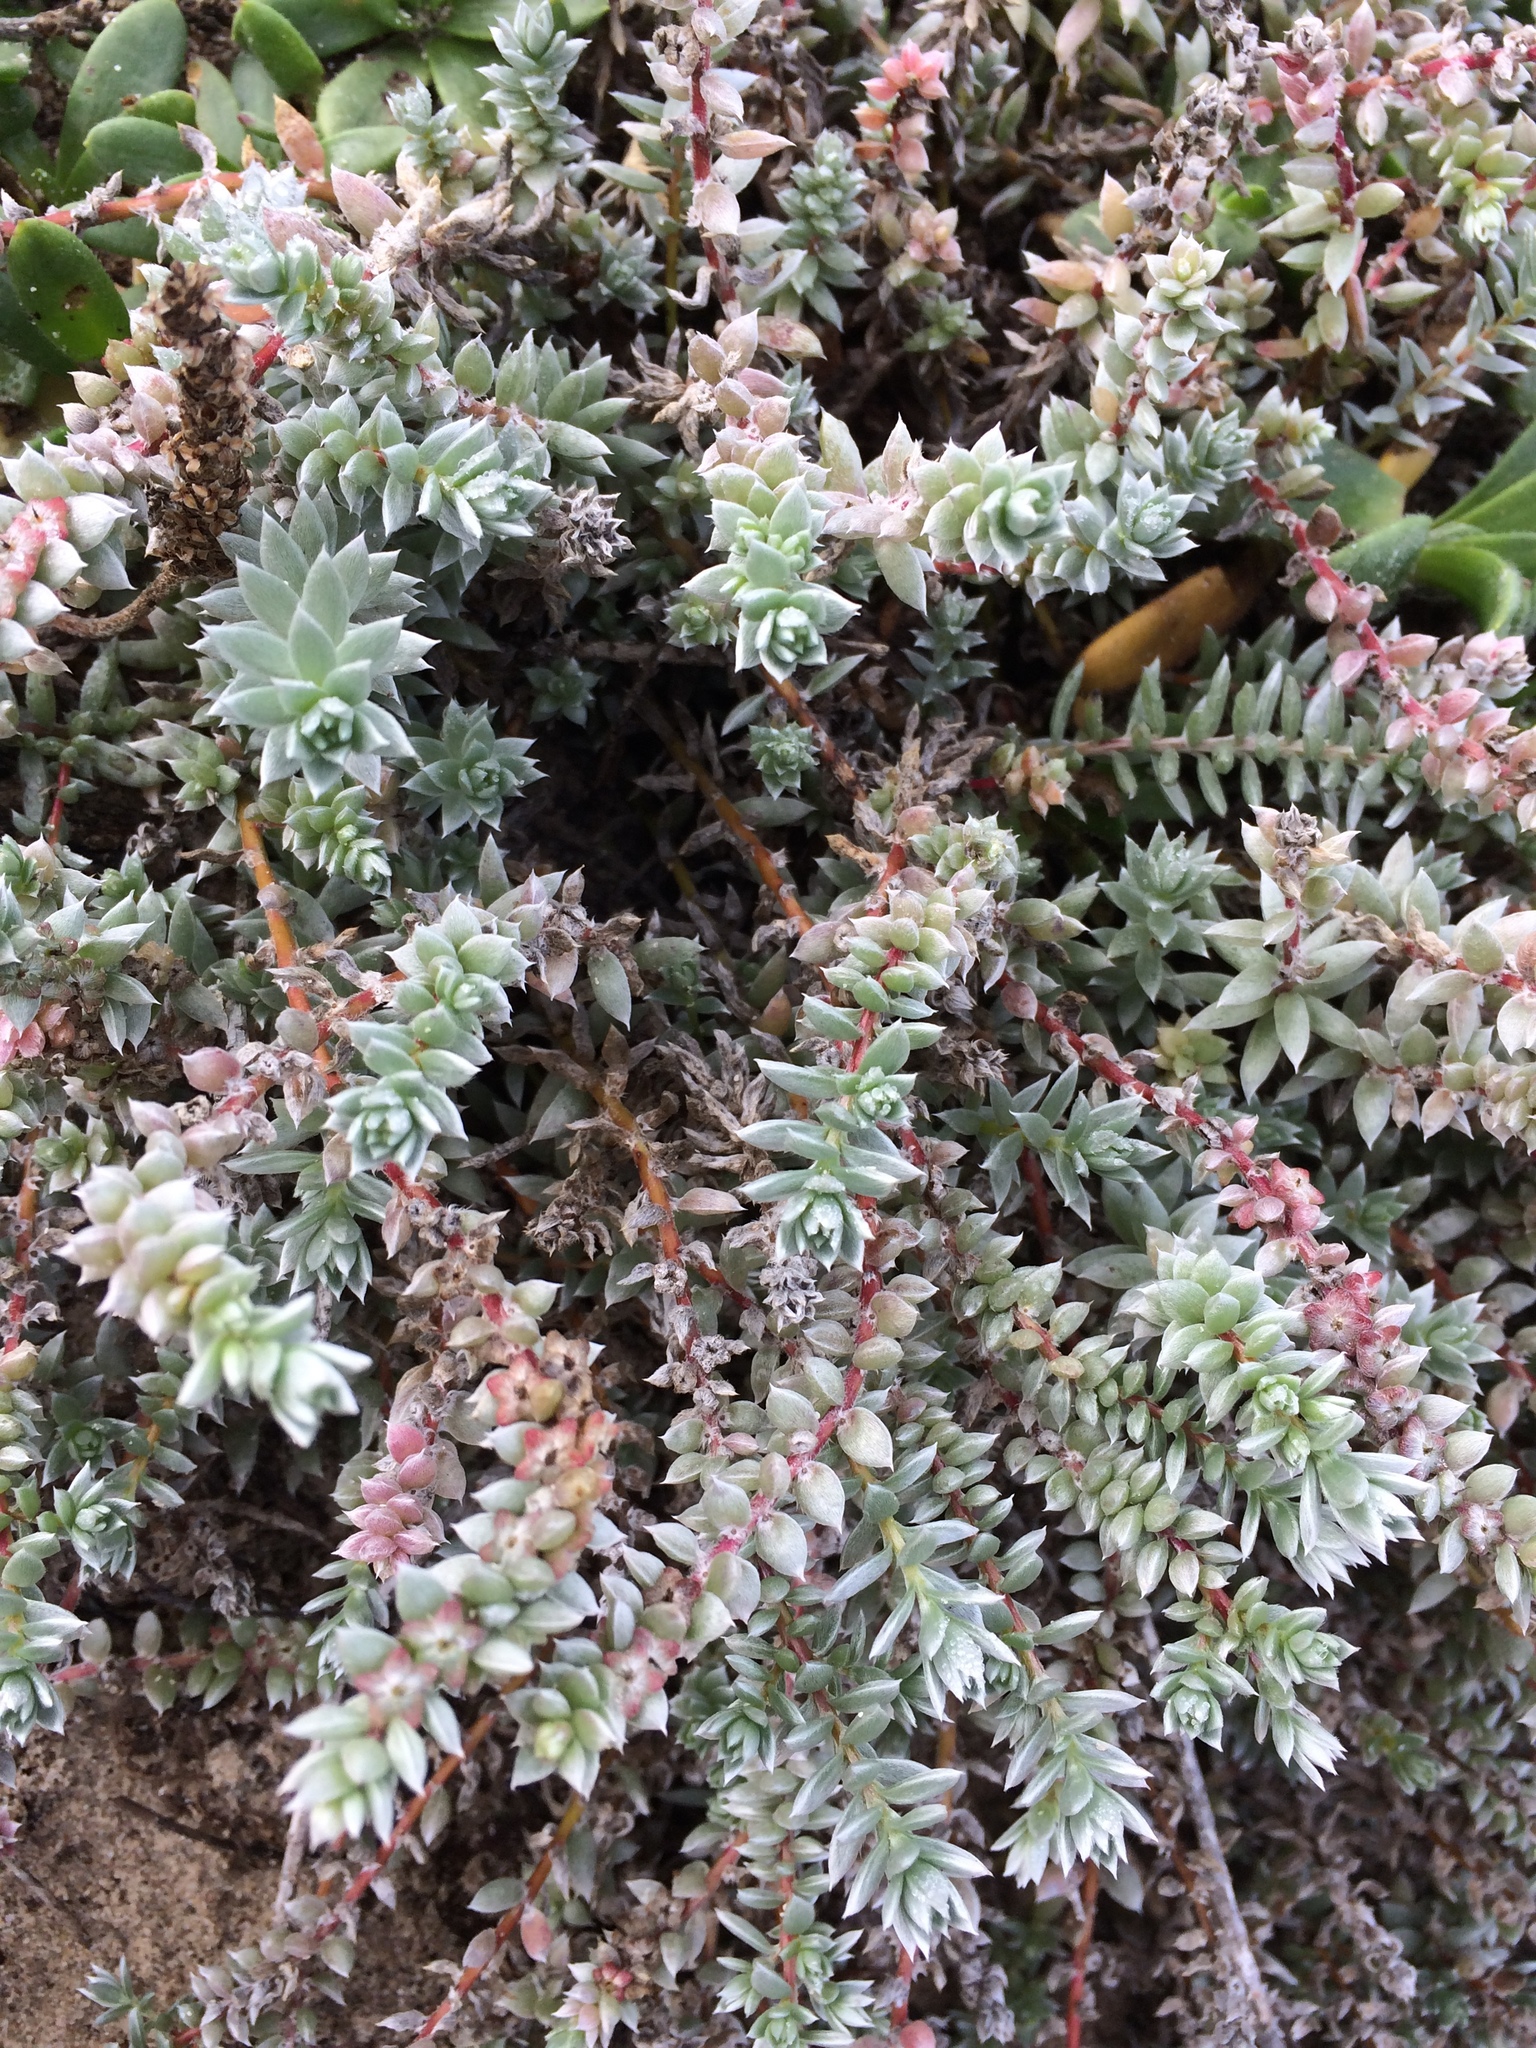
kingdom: Plantae
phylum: Tracheophyta
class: Magnoliopsida
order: Caryophyllales
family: Amaranthaceae
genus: Chenolea
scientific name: Chenolea diffusa
